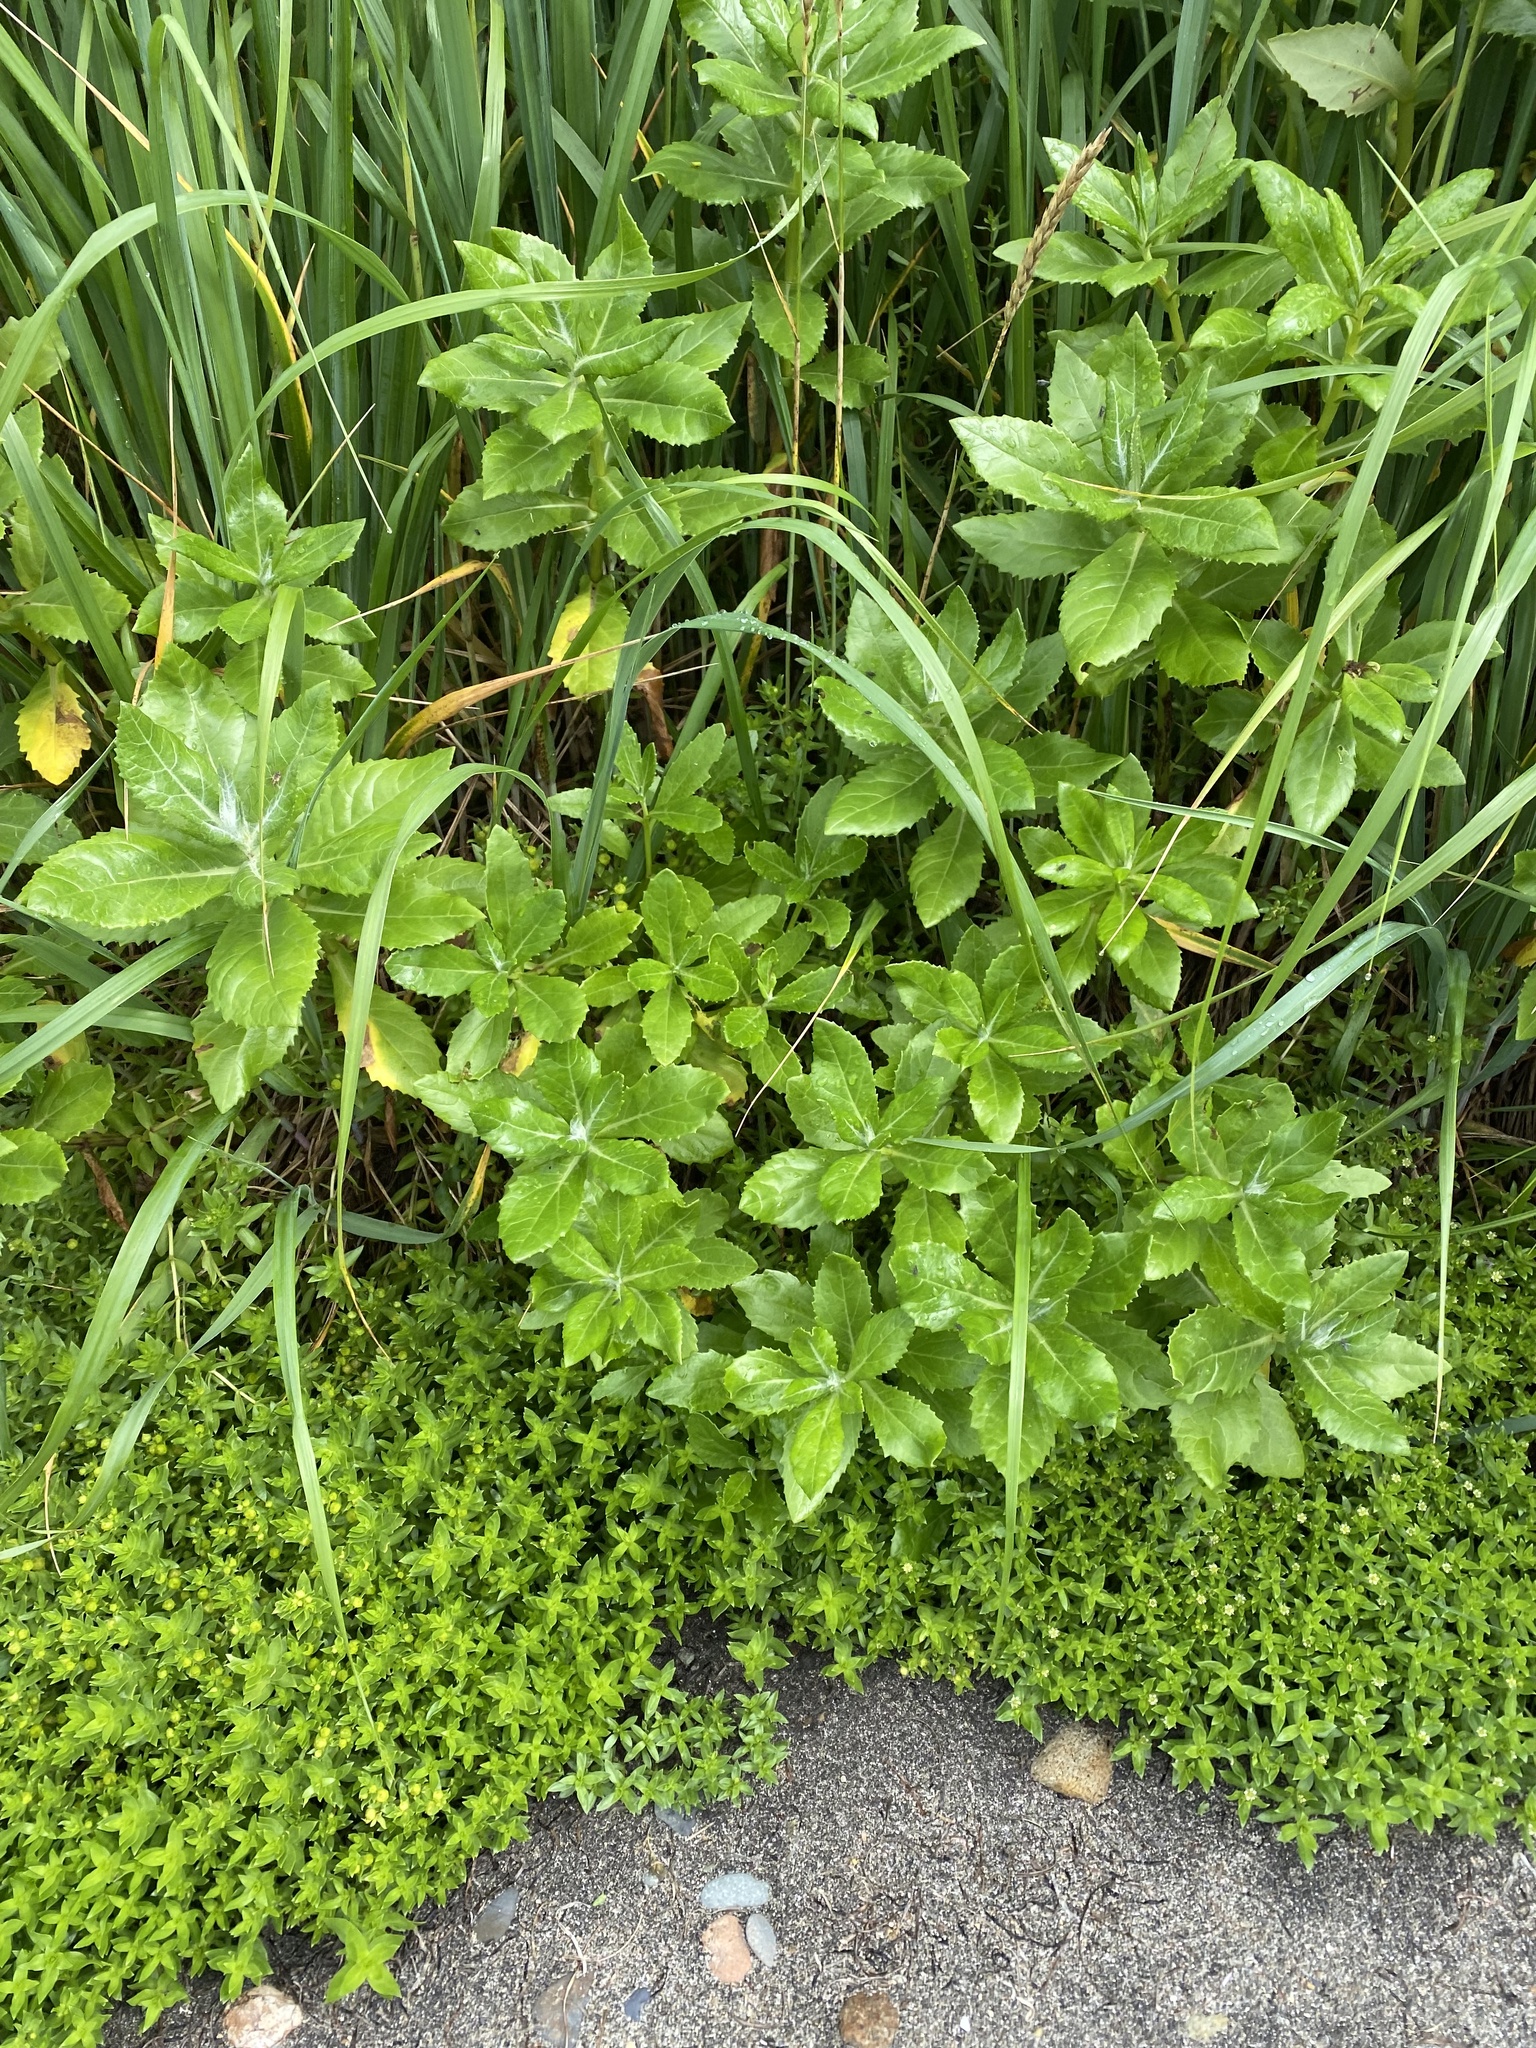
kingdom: Plantae
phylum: Tracheophyta
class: Magnoliopsida
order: Asterales
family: Asteraceae
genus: Jacobaea
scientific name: Jacobaea pseudoarnica
